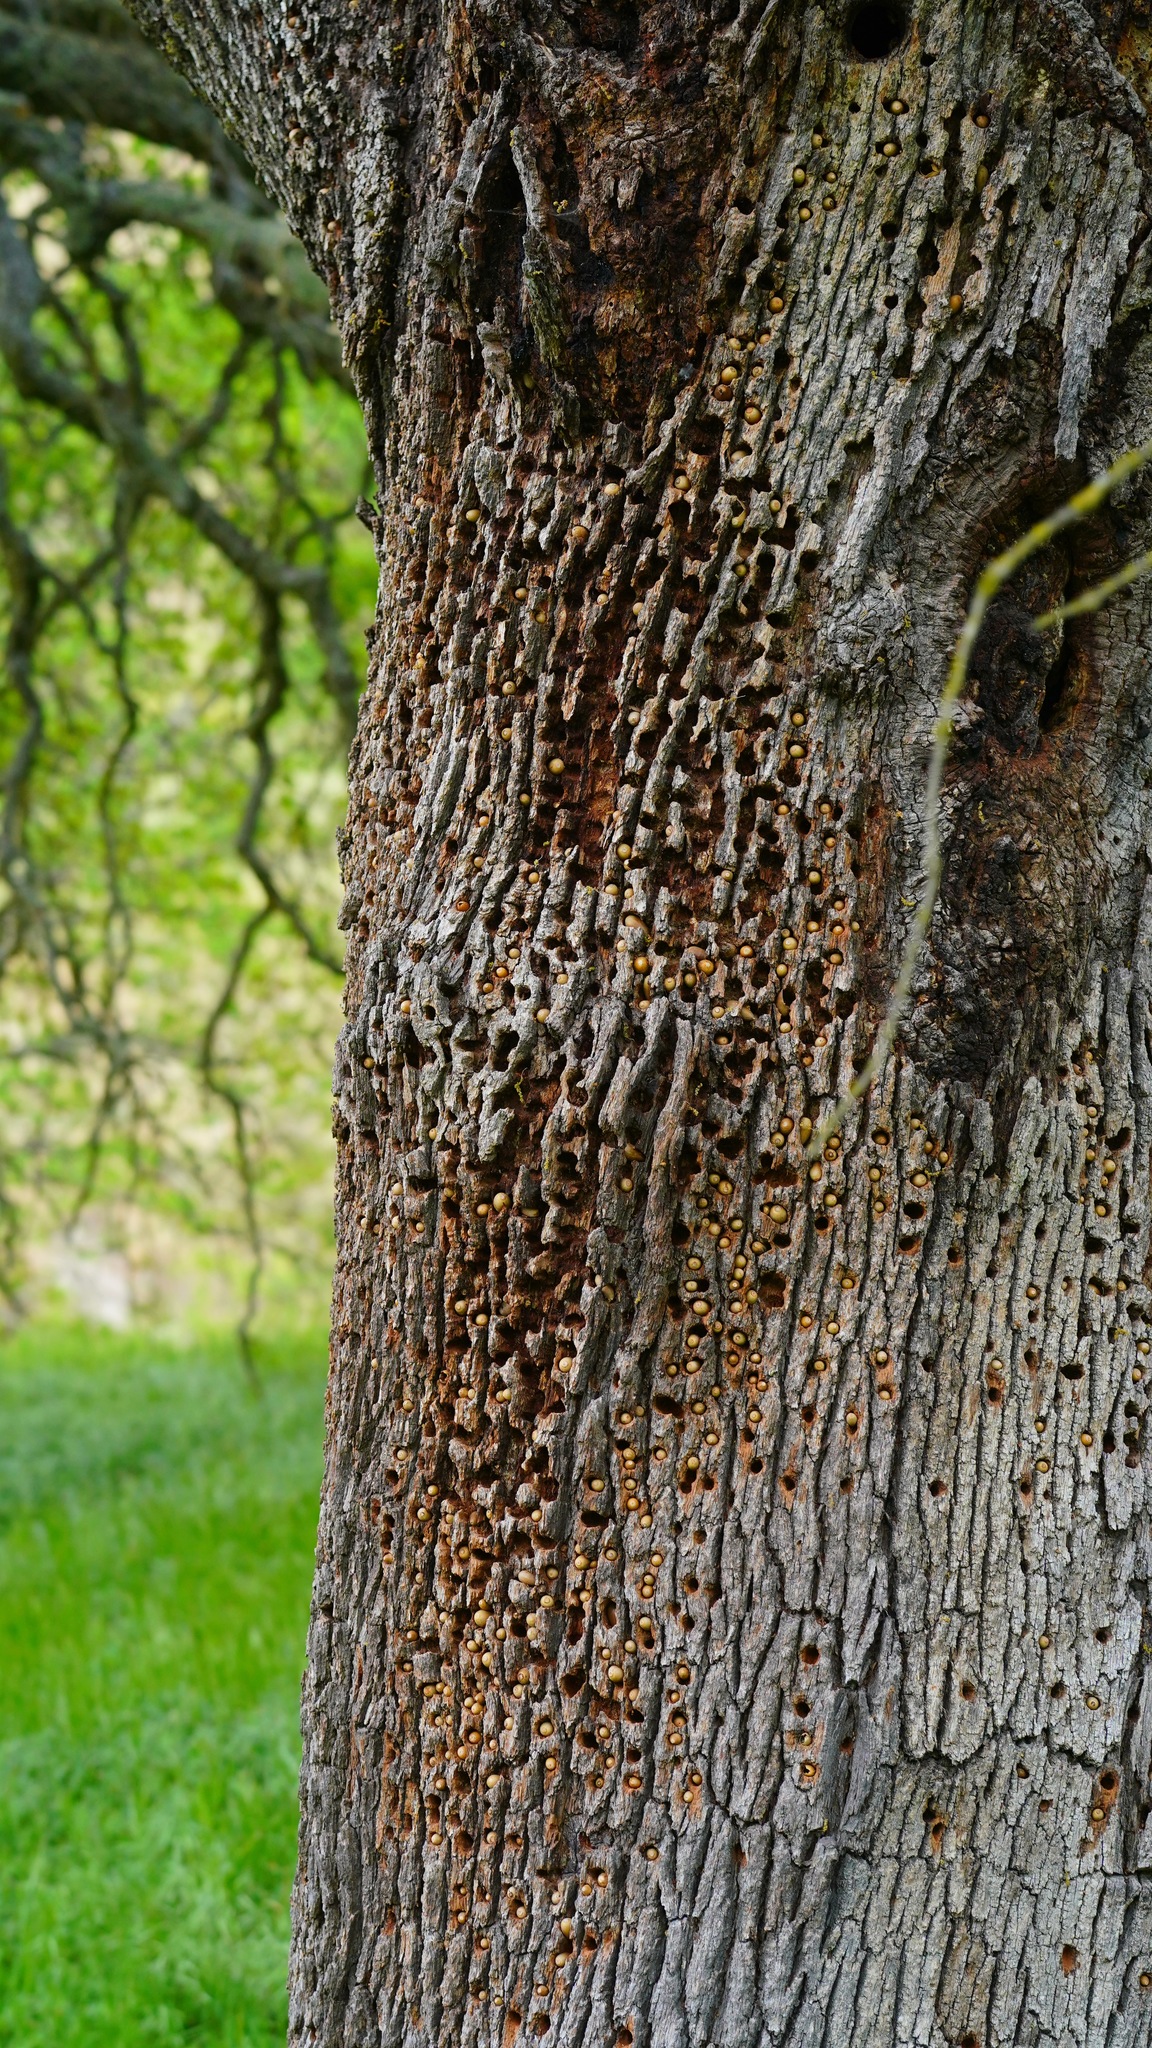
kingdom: Animalia
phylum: Chordata
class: Aves
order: Piciformes
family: Picidae
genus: Melanerpes
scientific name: Melanerpes formicivorus
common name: Acorn woodpecker
